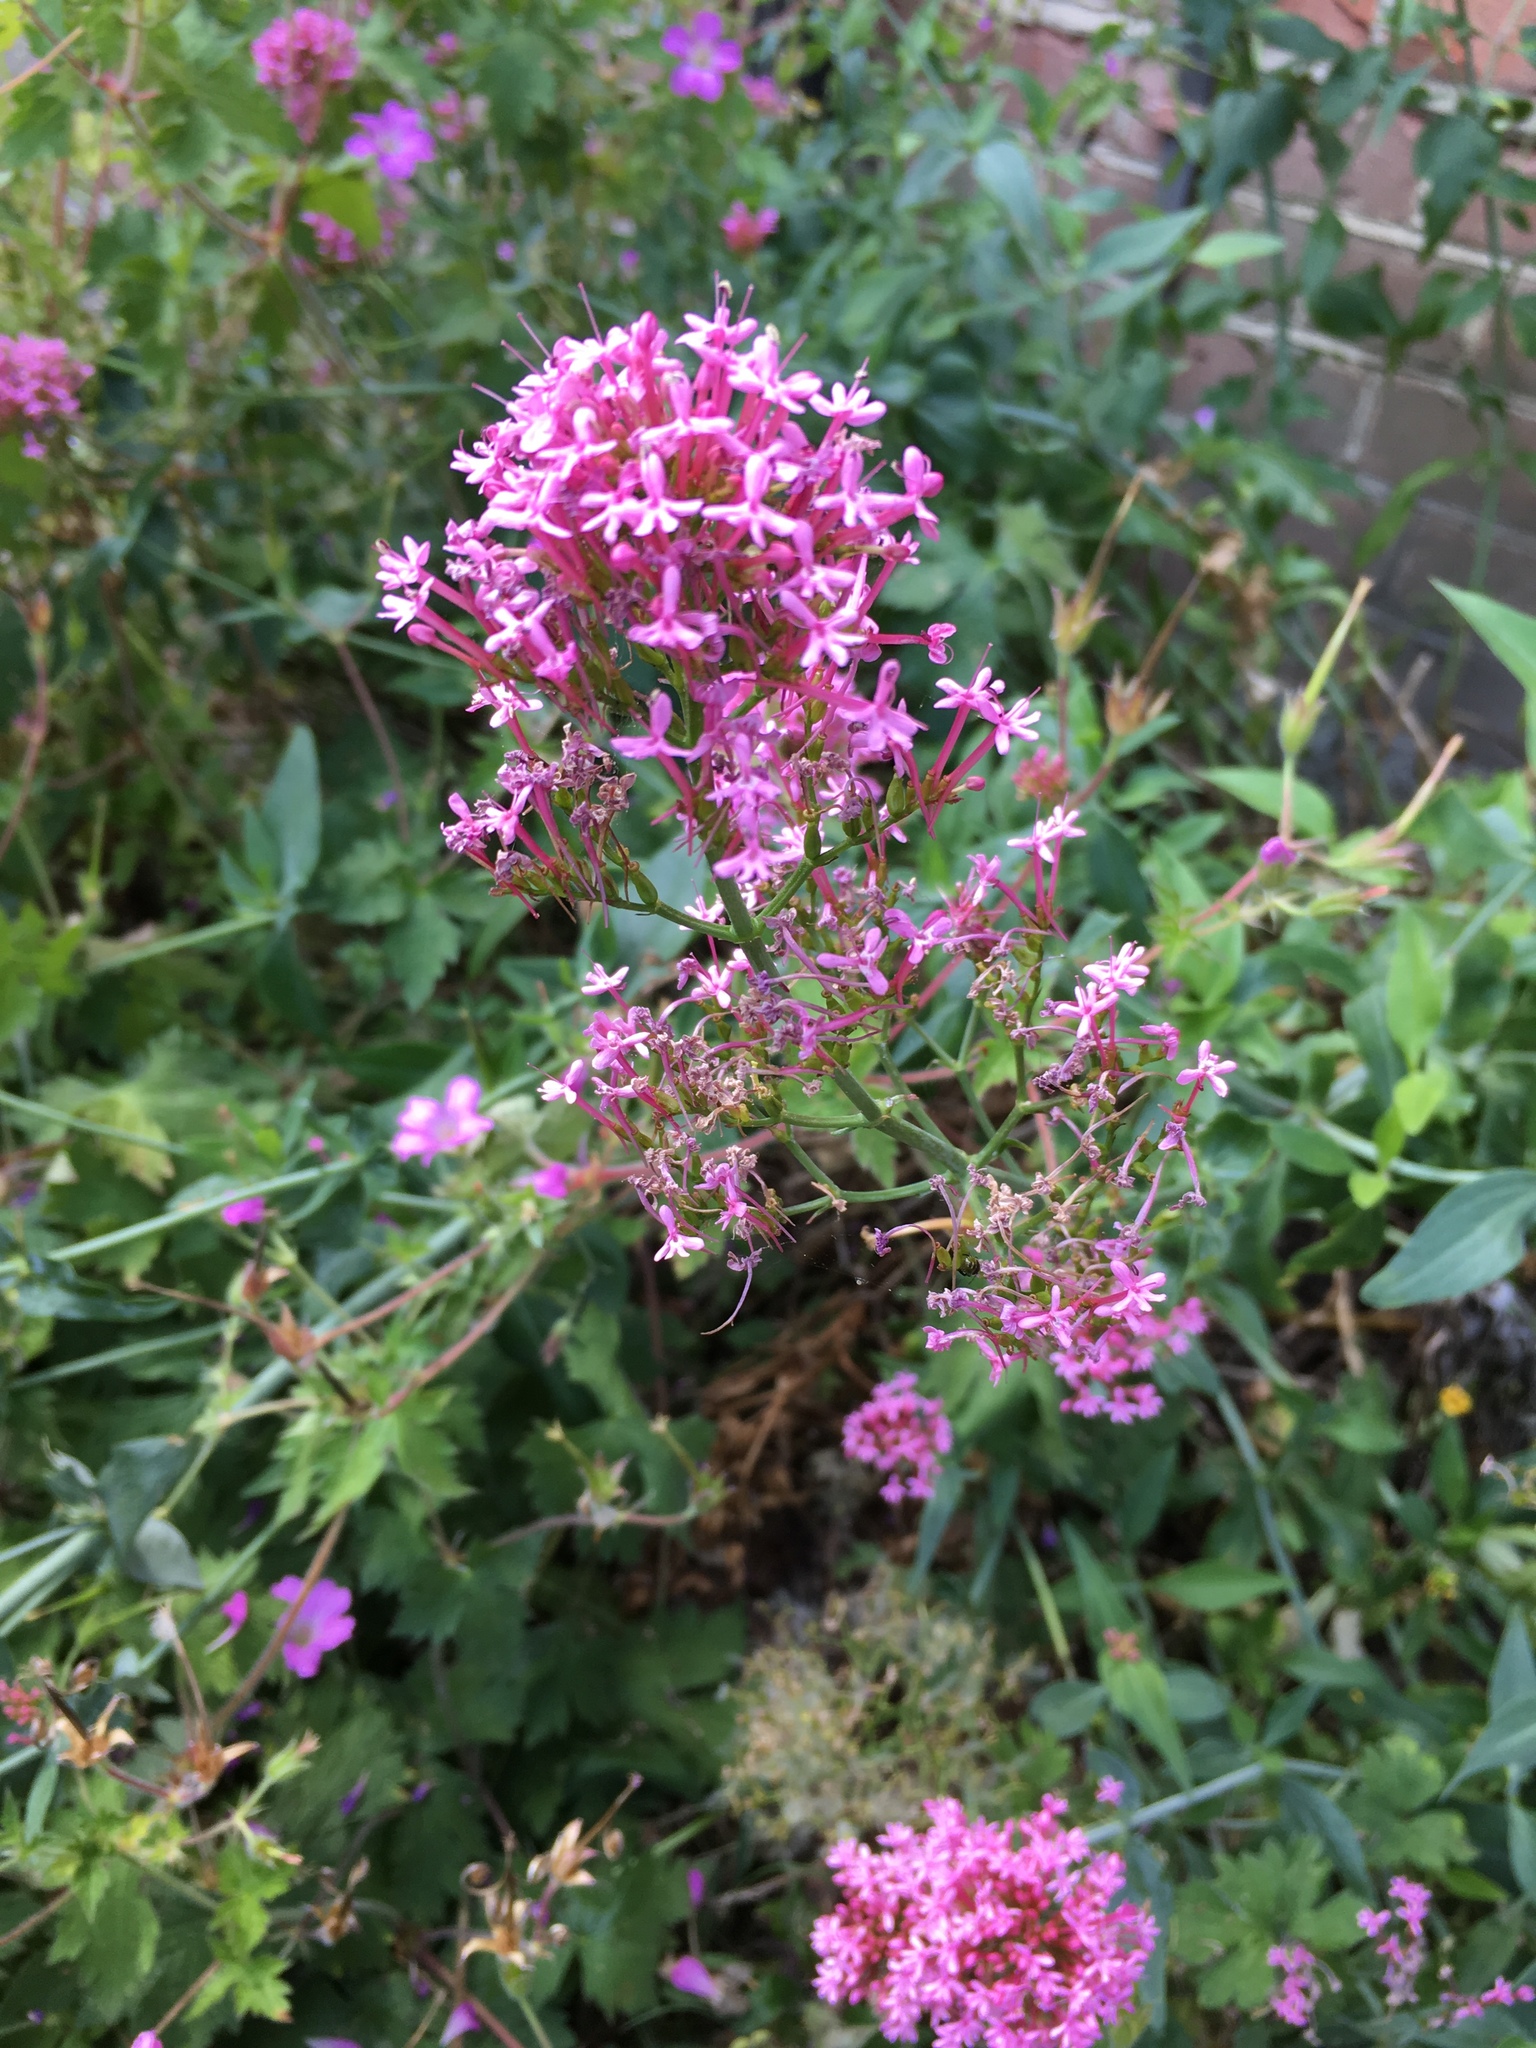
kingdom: Plantae
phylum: Tracheophyta
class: Magnoliopsida
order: Dipsacales
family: Caprifoliaceae
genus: Centranthus
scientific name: Centranthus ruber
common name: Red valerian
